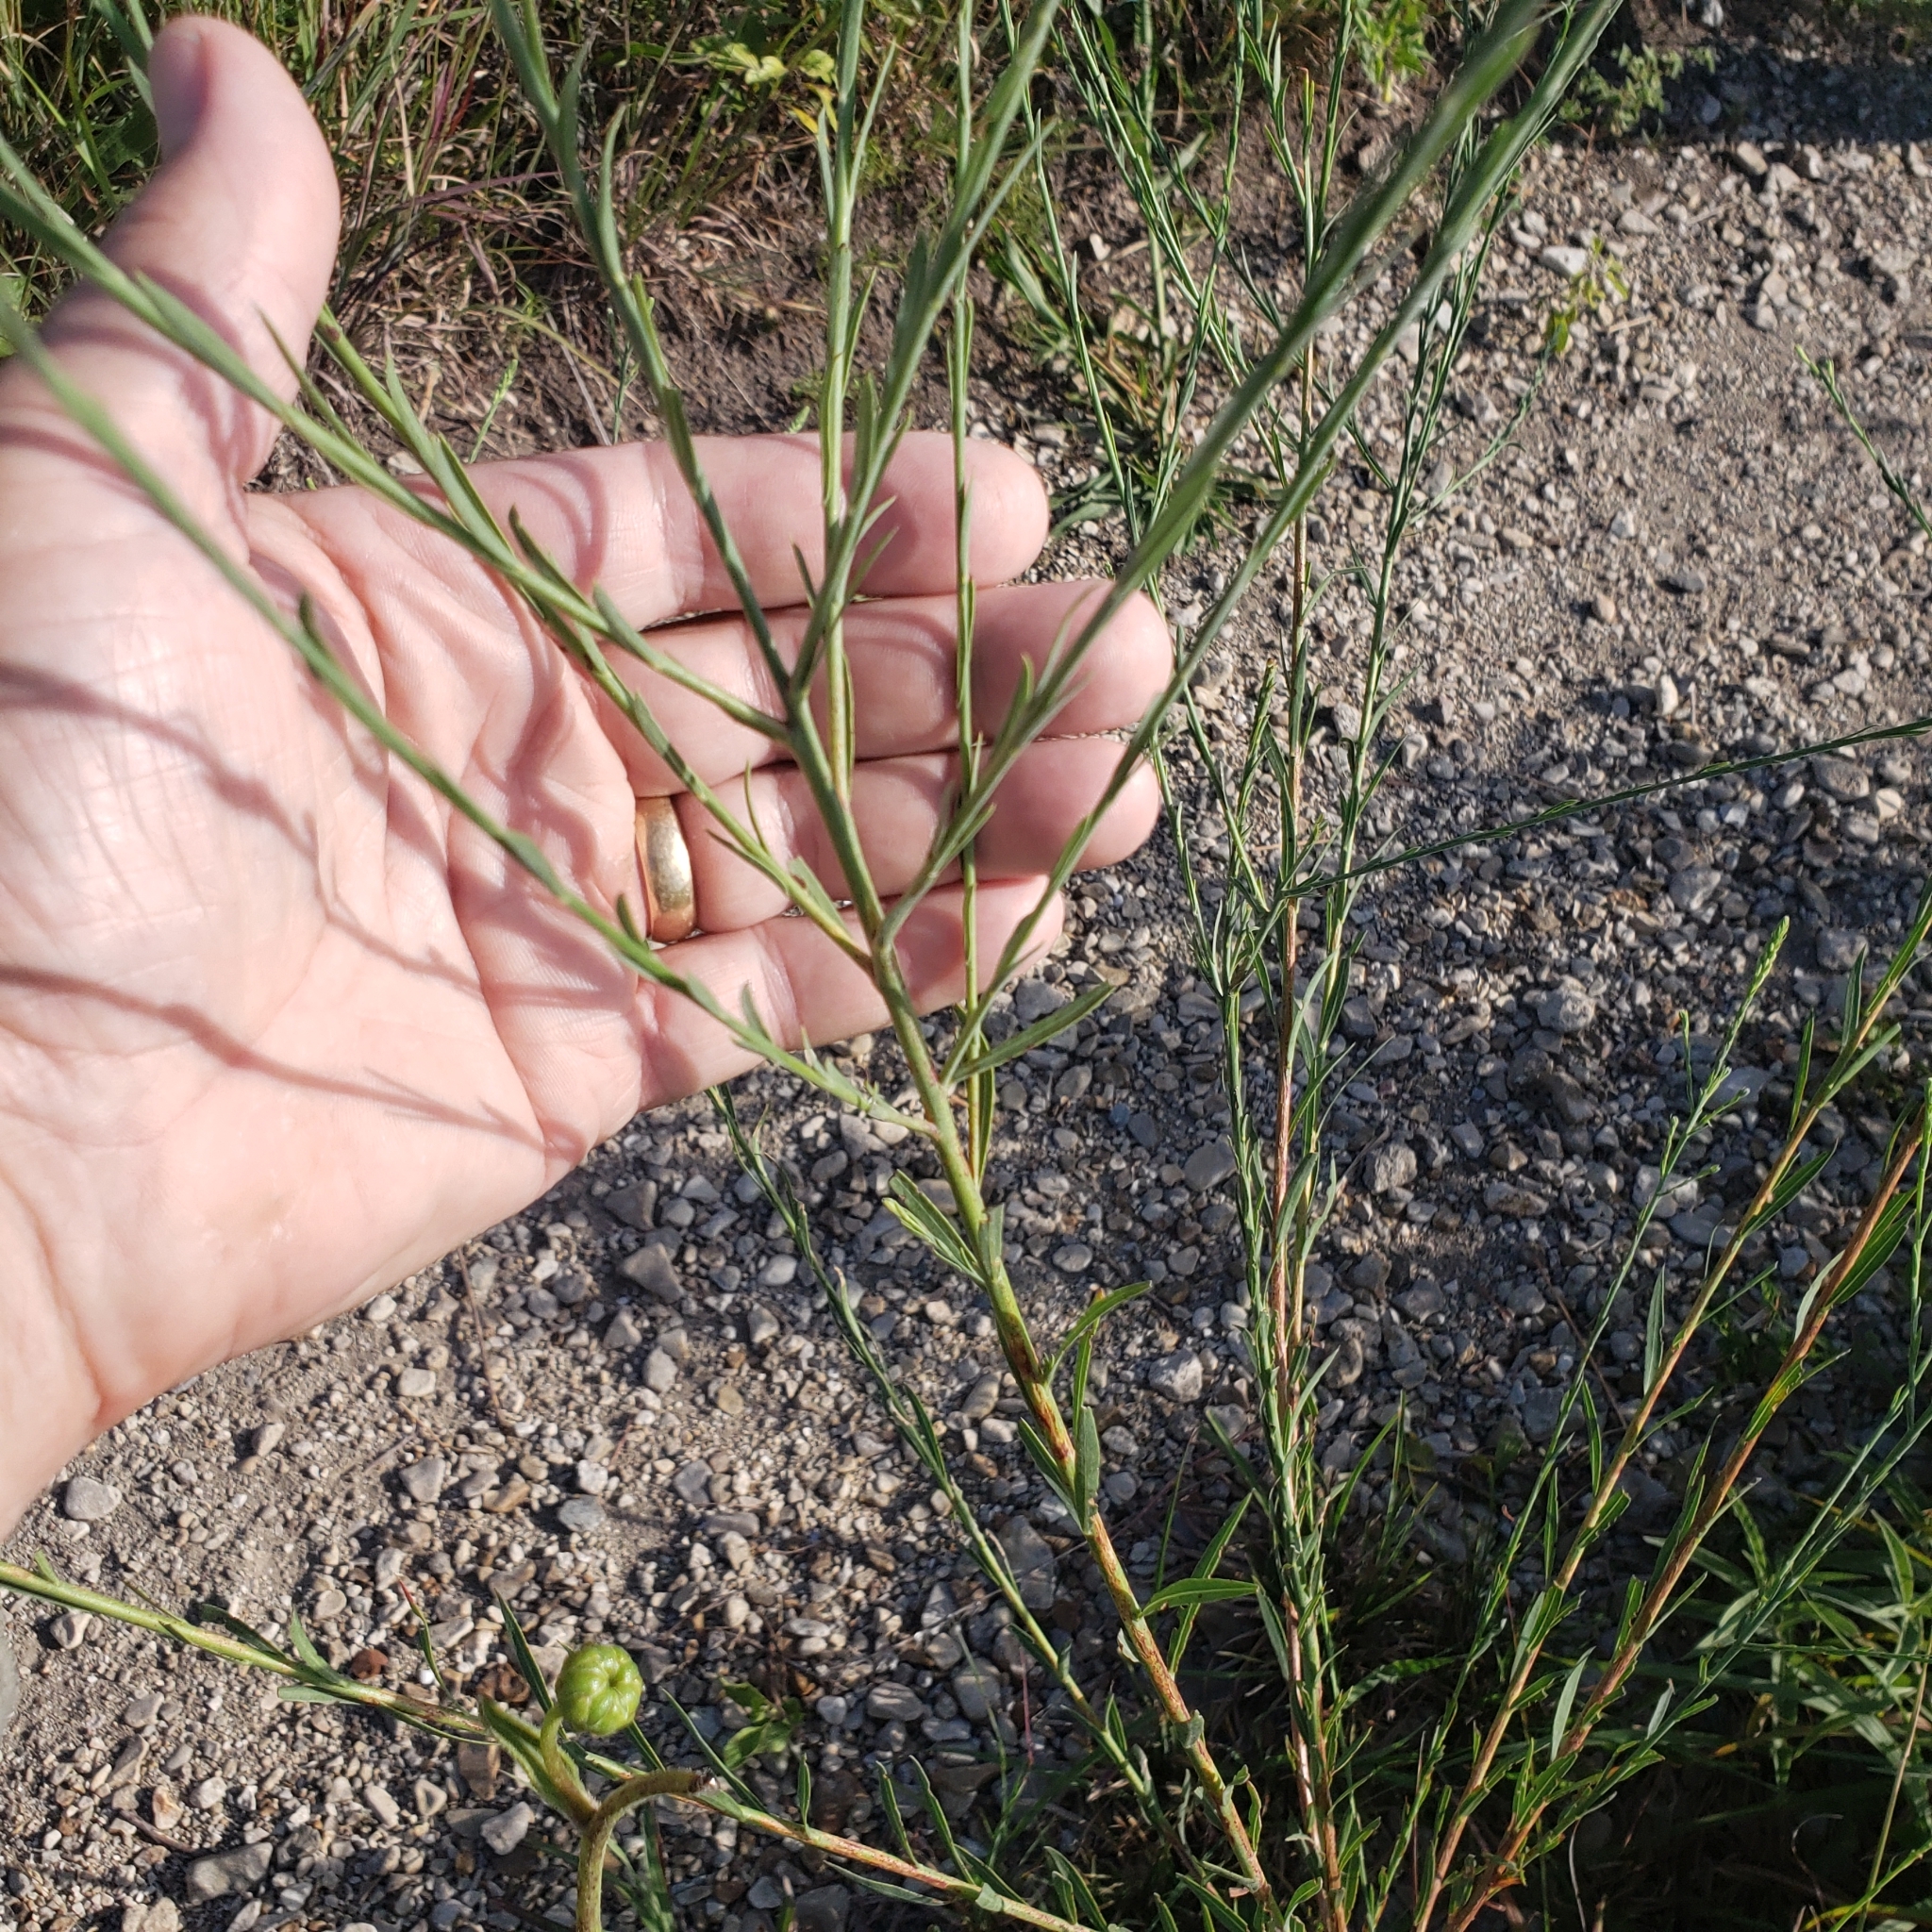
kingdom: Plantae
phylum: Tracheophyta
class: Magnoliopsida
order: Myrtales
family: Onagraceae
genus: Oenothera
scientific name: Oenothera glaucifolia
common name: False gaura
